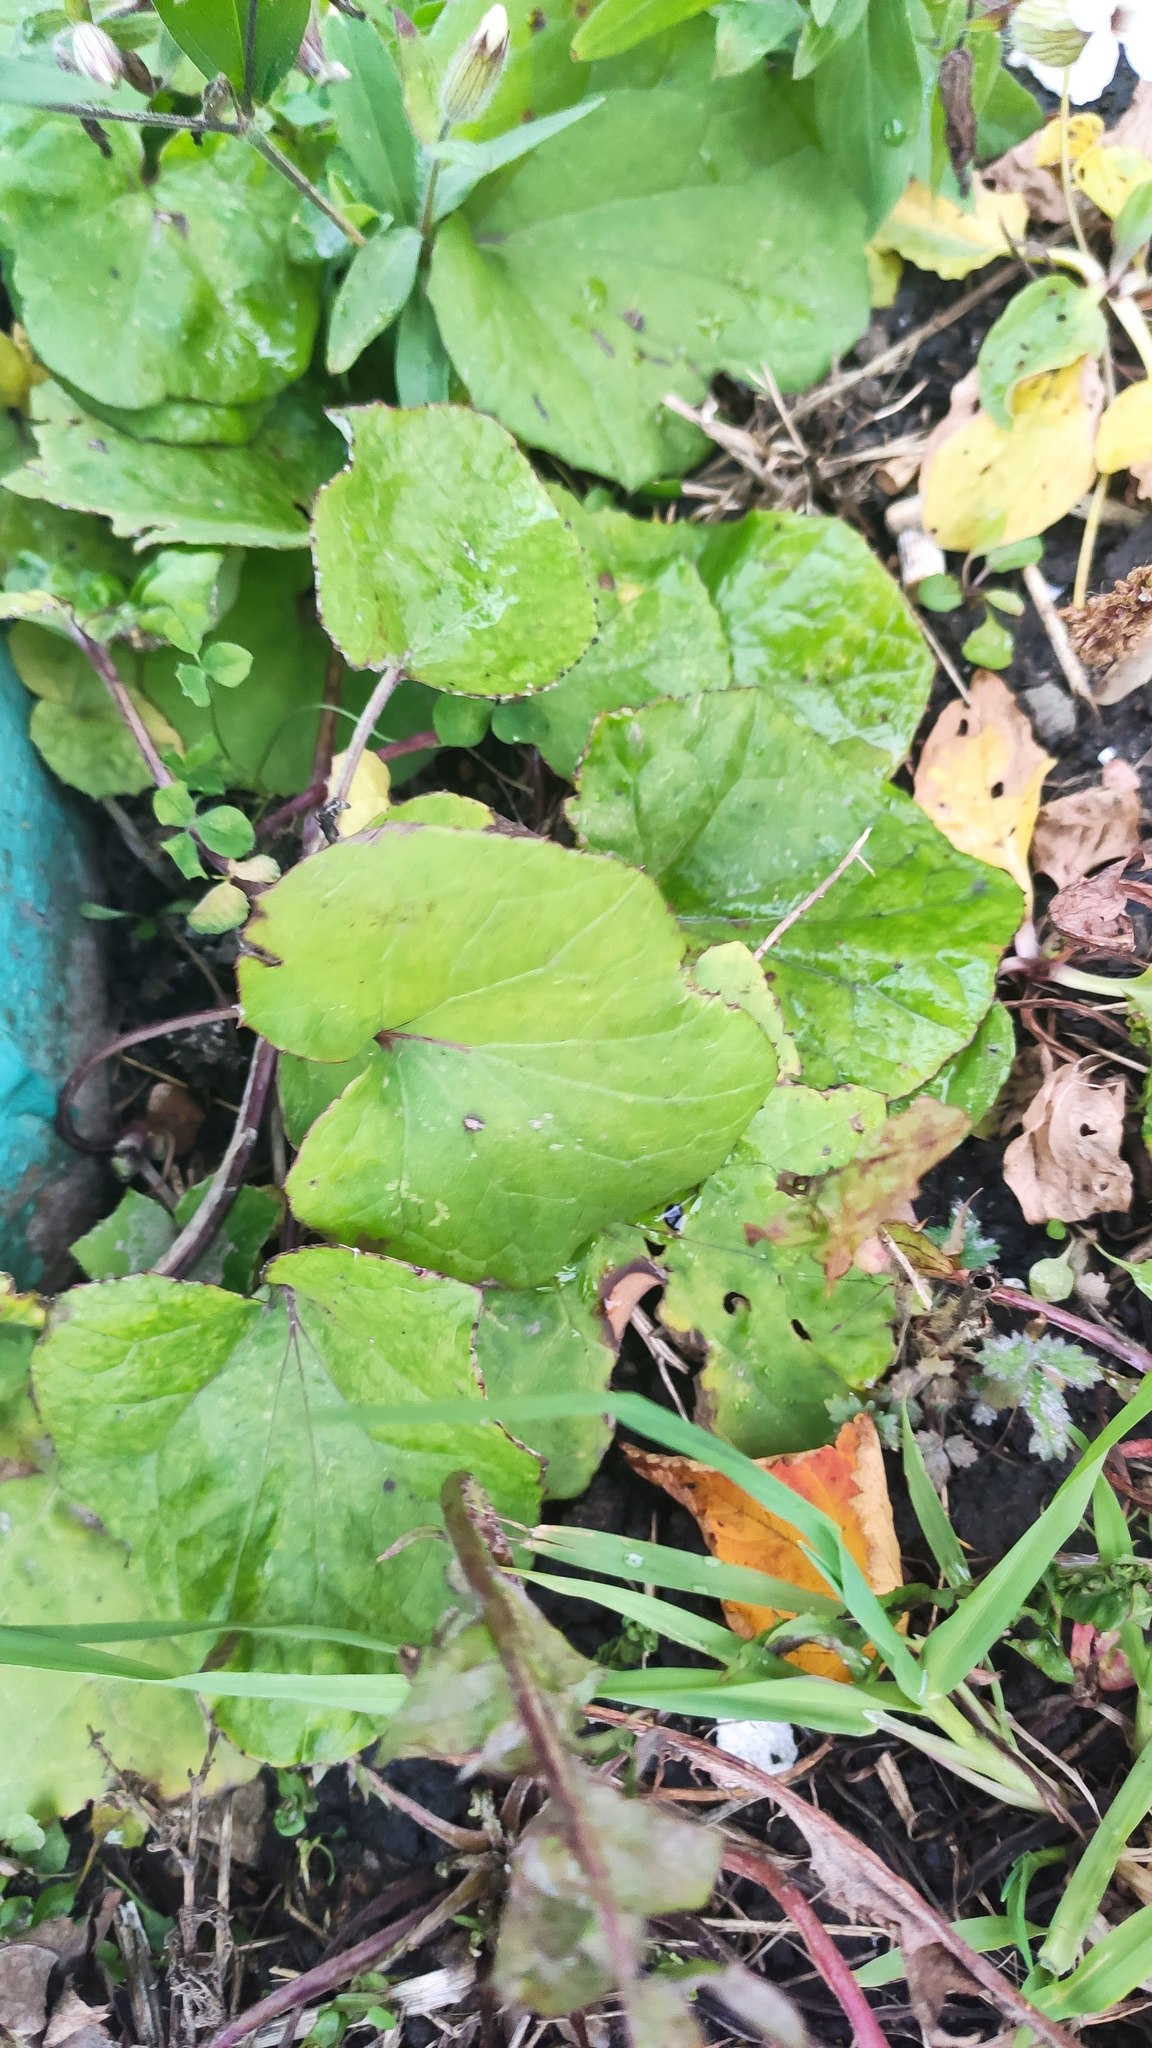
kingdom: Plantae
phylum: Tracheophyta
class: Magnoliopsida
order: Asterales
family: Asteraceae
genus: Tussilago
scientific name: Tussilago farfara
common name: Coltsfoot
